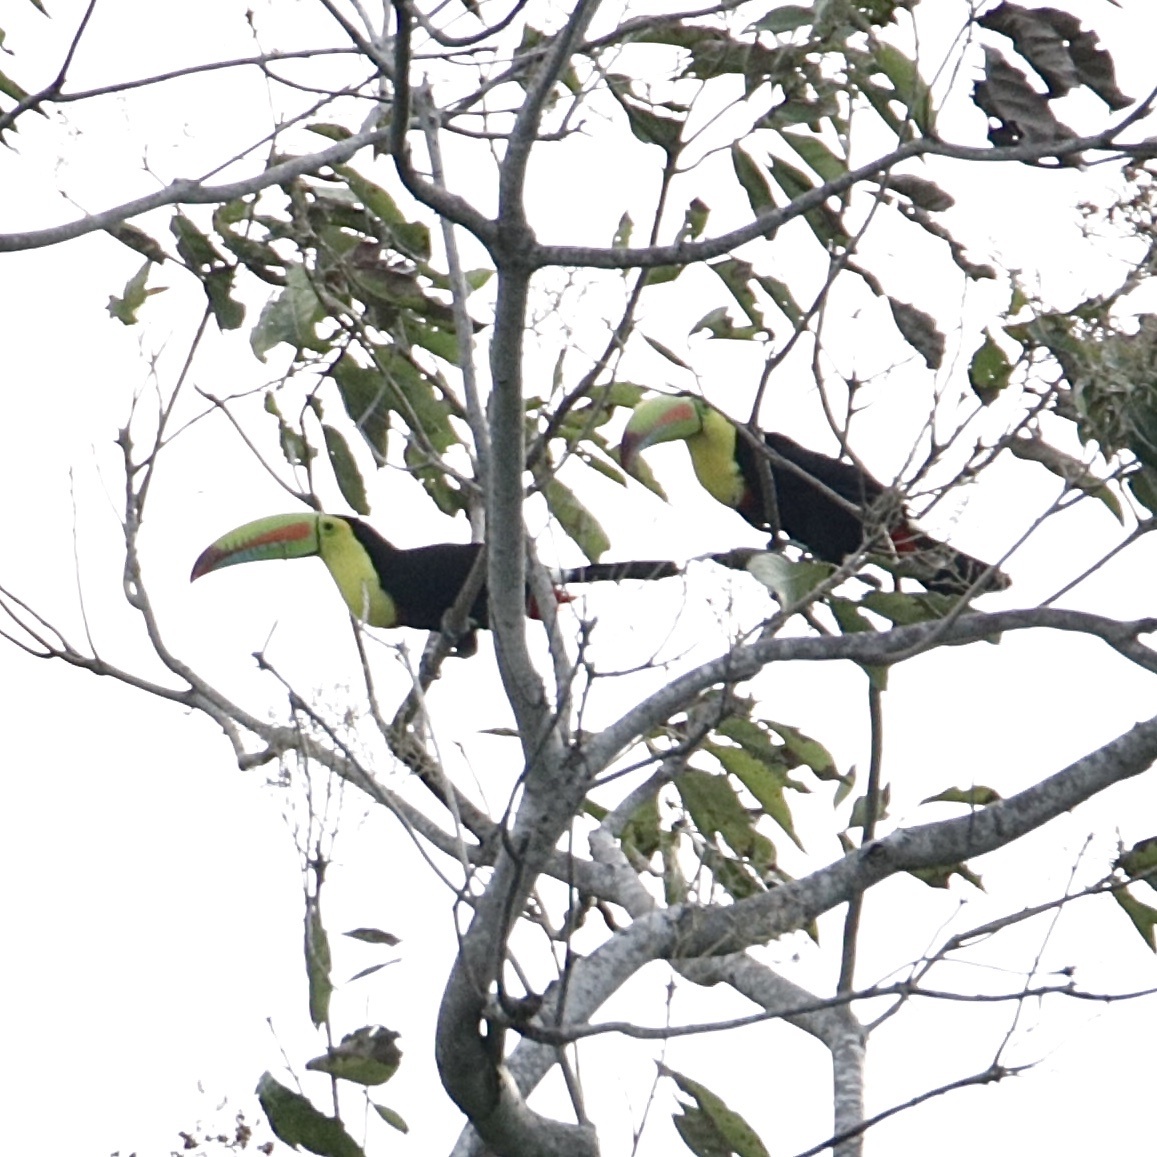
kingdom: Animalia
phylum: Chordata
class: Aves
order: Piciformes
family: Ramphastidae
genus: Ramphastos
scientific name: Ramphastos sulfuratus
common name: Keel-billed toucan
